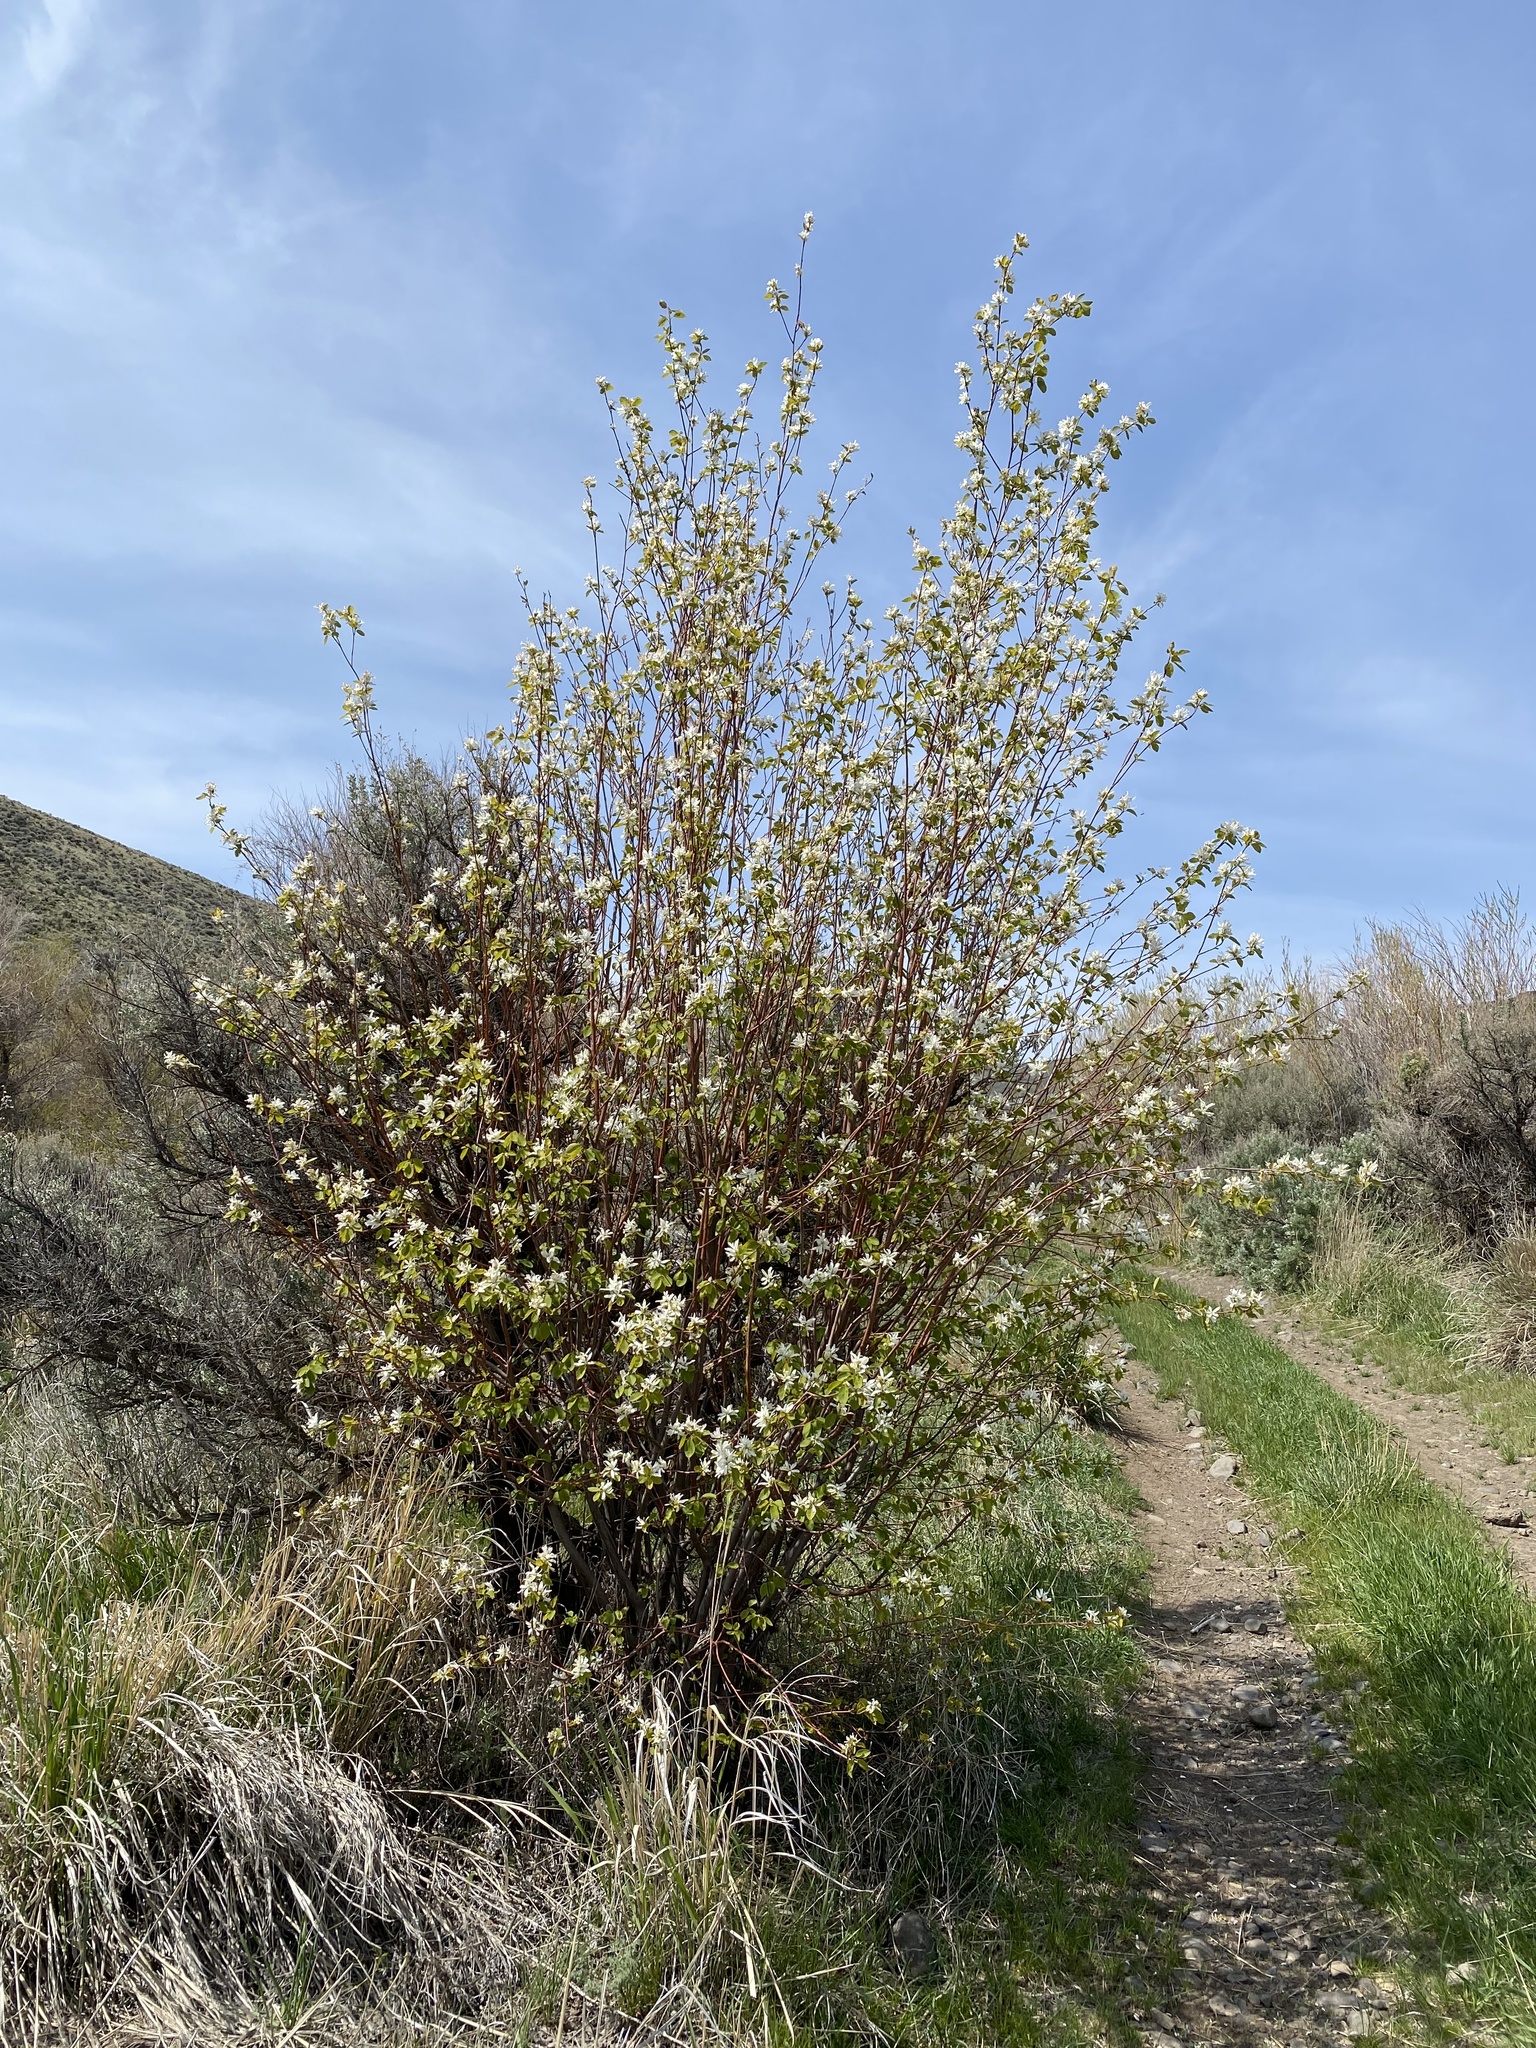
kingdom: Plantae
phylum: Tracheophyta
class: Magnoliopsida
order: Rosales
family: Rosaceae
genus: Amelanchier
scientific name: Amelanchier alnifolia
